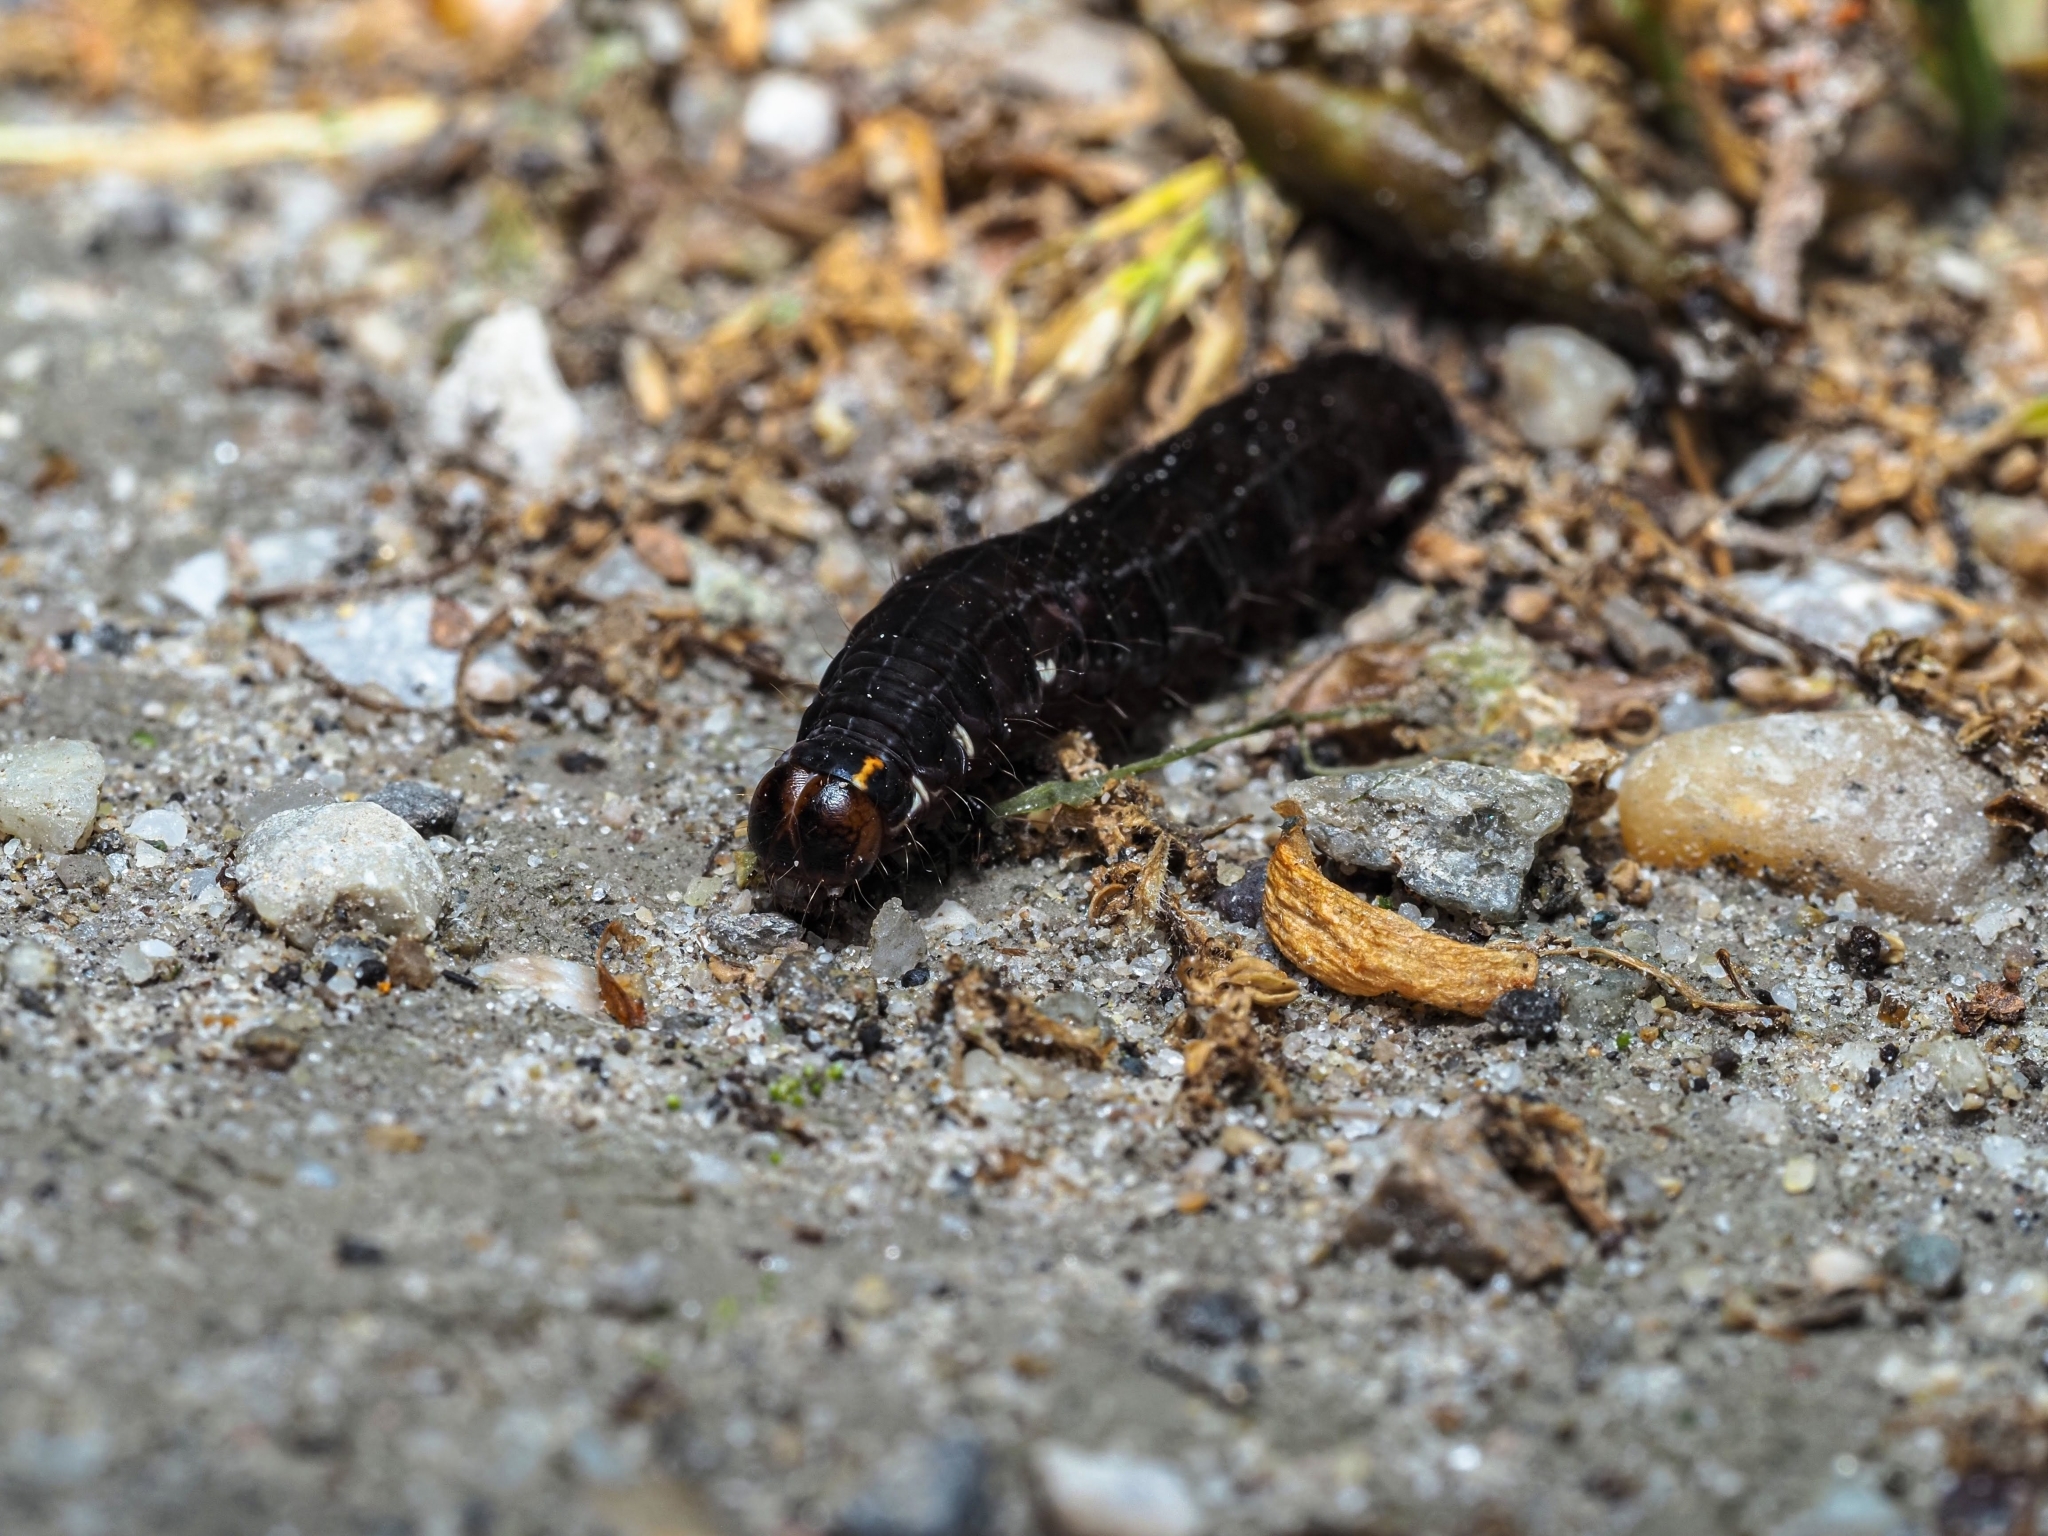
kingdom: Animalia
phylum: Arthropoda
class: Insecta
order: Lepidoptera
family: Noctuidae
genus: Eupsilia
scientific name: Eupsilia transversa
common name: Satellite
